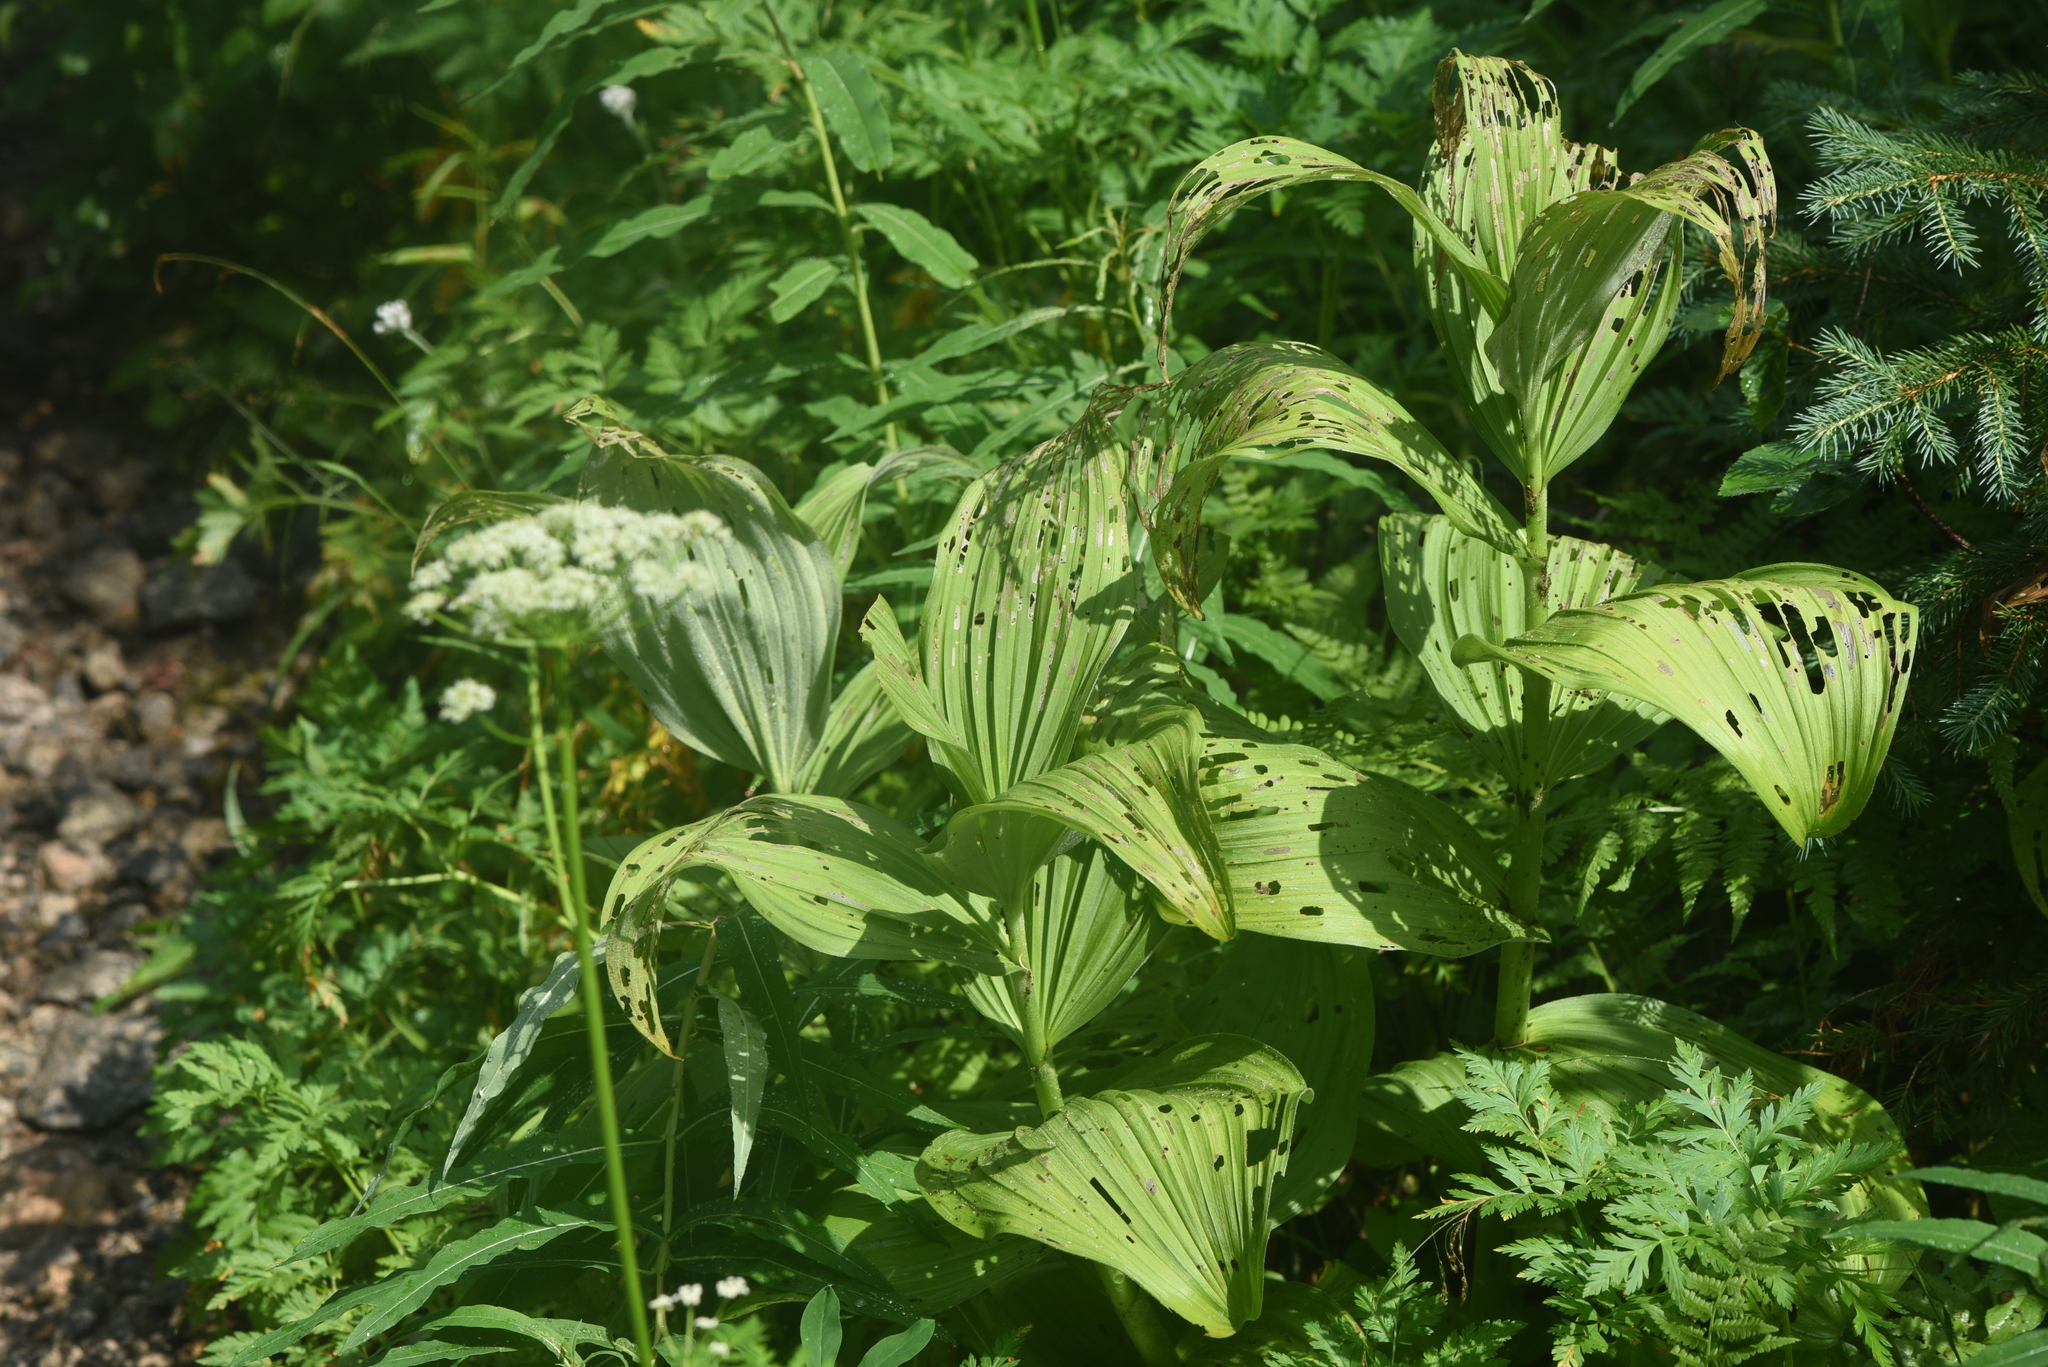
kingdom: Plantae
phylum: Tracheophyta
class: Liliopsida
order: Liliales
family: Melanthiaceae
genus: Veratrum
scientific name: Veratrum viride
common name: American false hellebore
